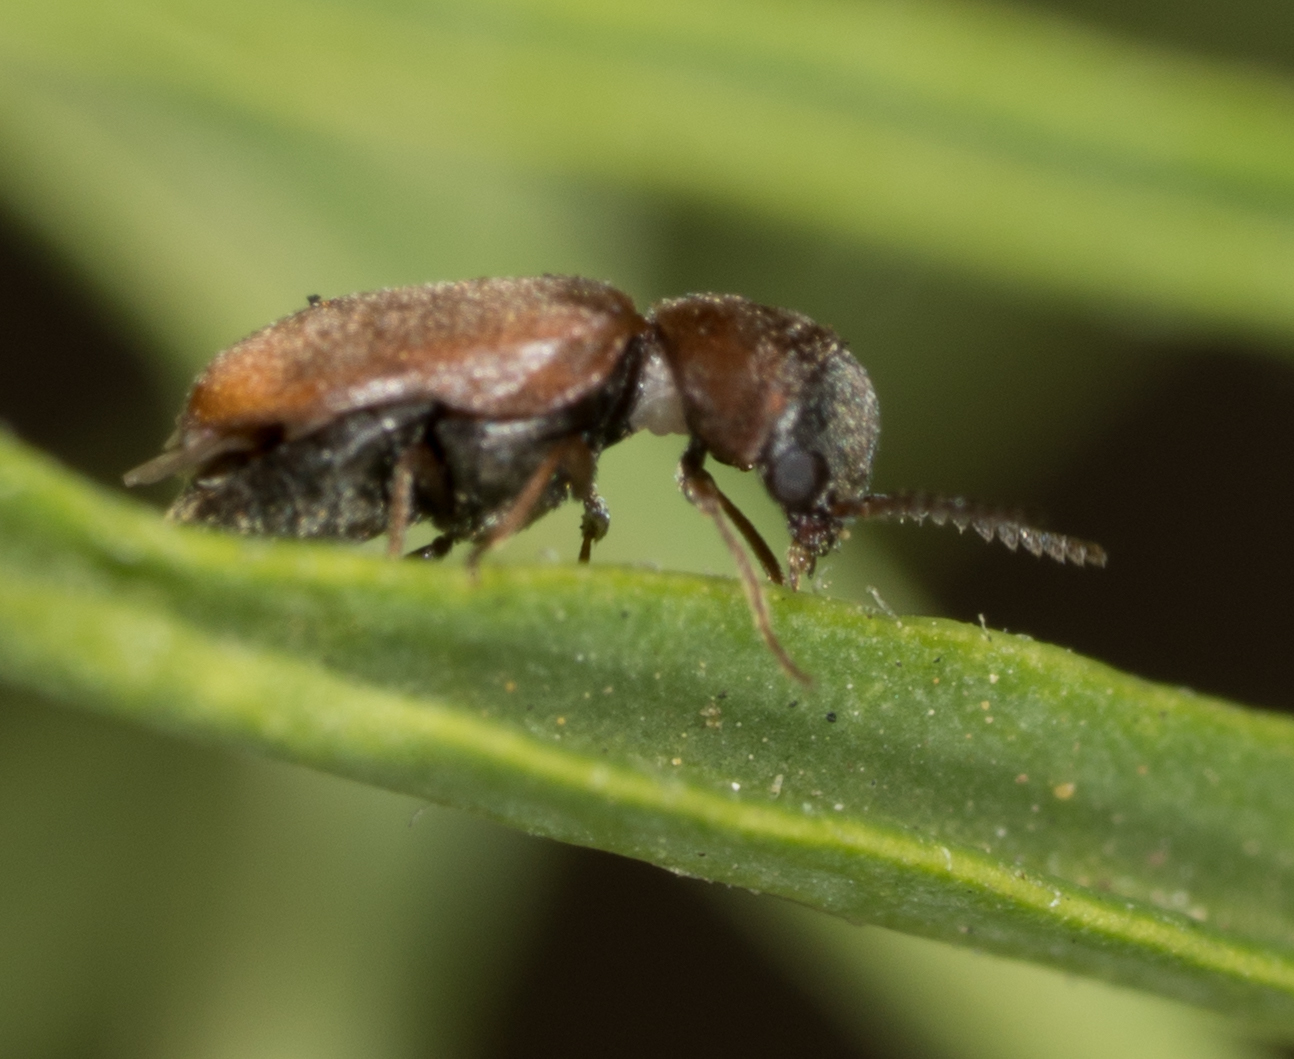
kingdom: Animalia
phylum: Arthropoda
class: Insecta
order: Coleoptera
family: Anobiidae
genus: Lasioderma
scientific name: Lasioderma haemorrhoidale
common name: Anobiid beetle
